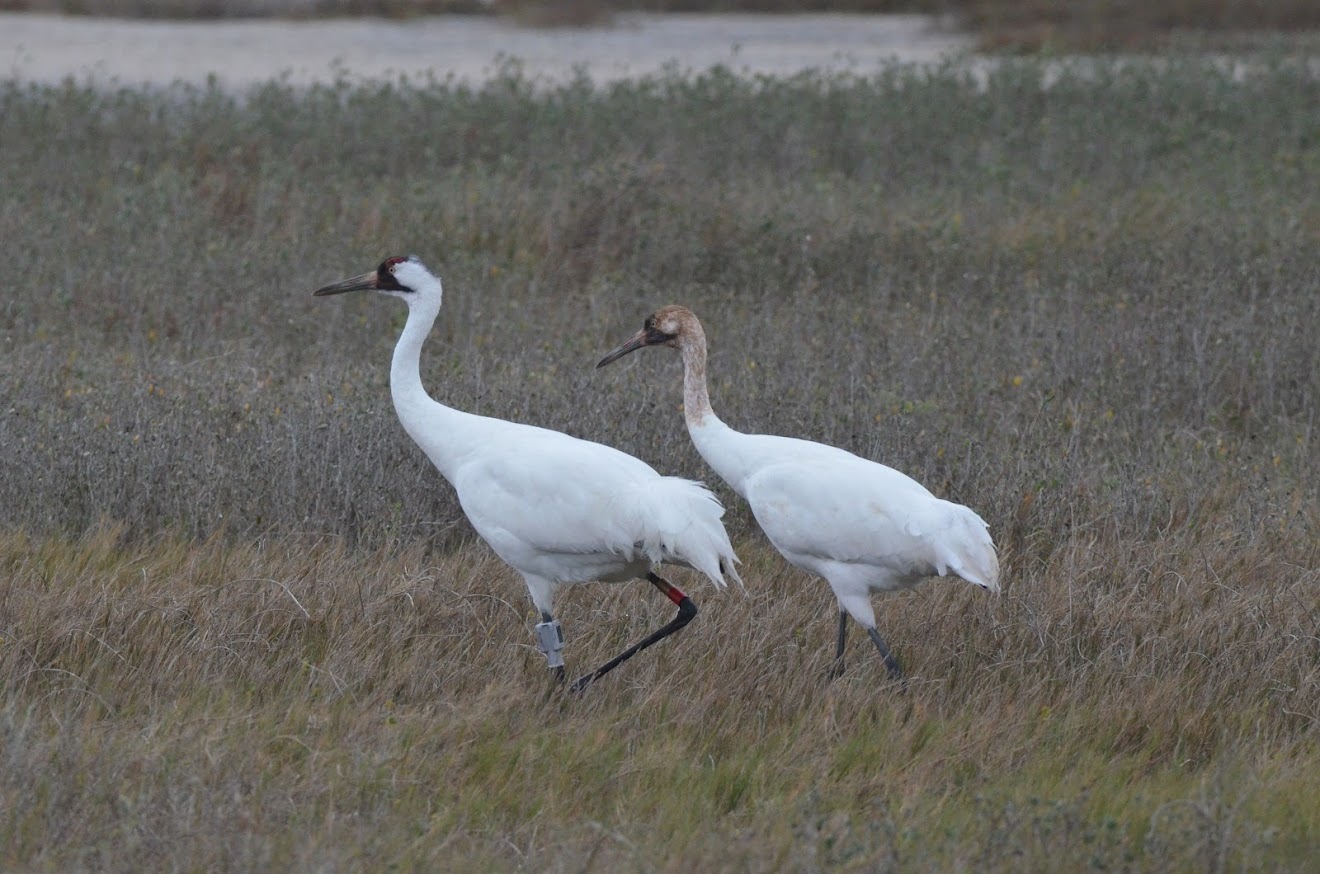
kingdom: Animalia
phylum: Chordata
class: Aves
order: Gruiformes
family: Gruidae
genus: Grus
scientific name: Grus americana
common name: Whooping crane
